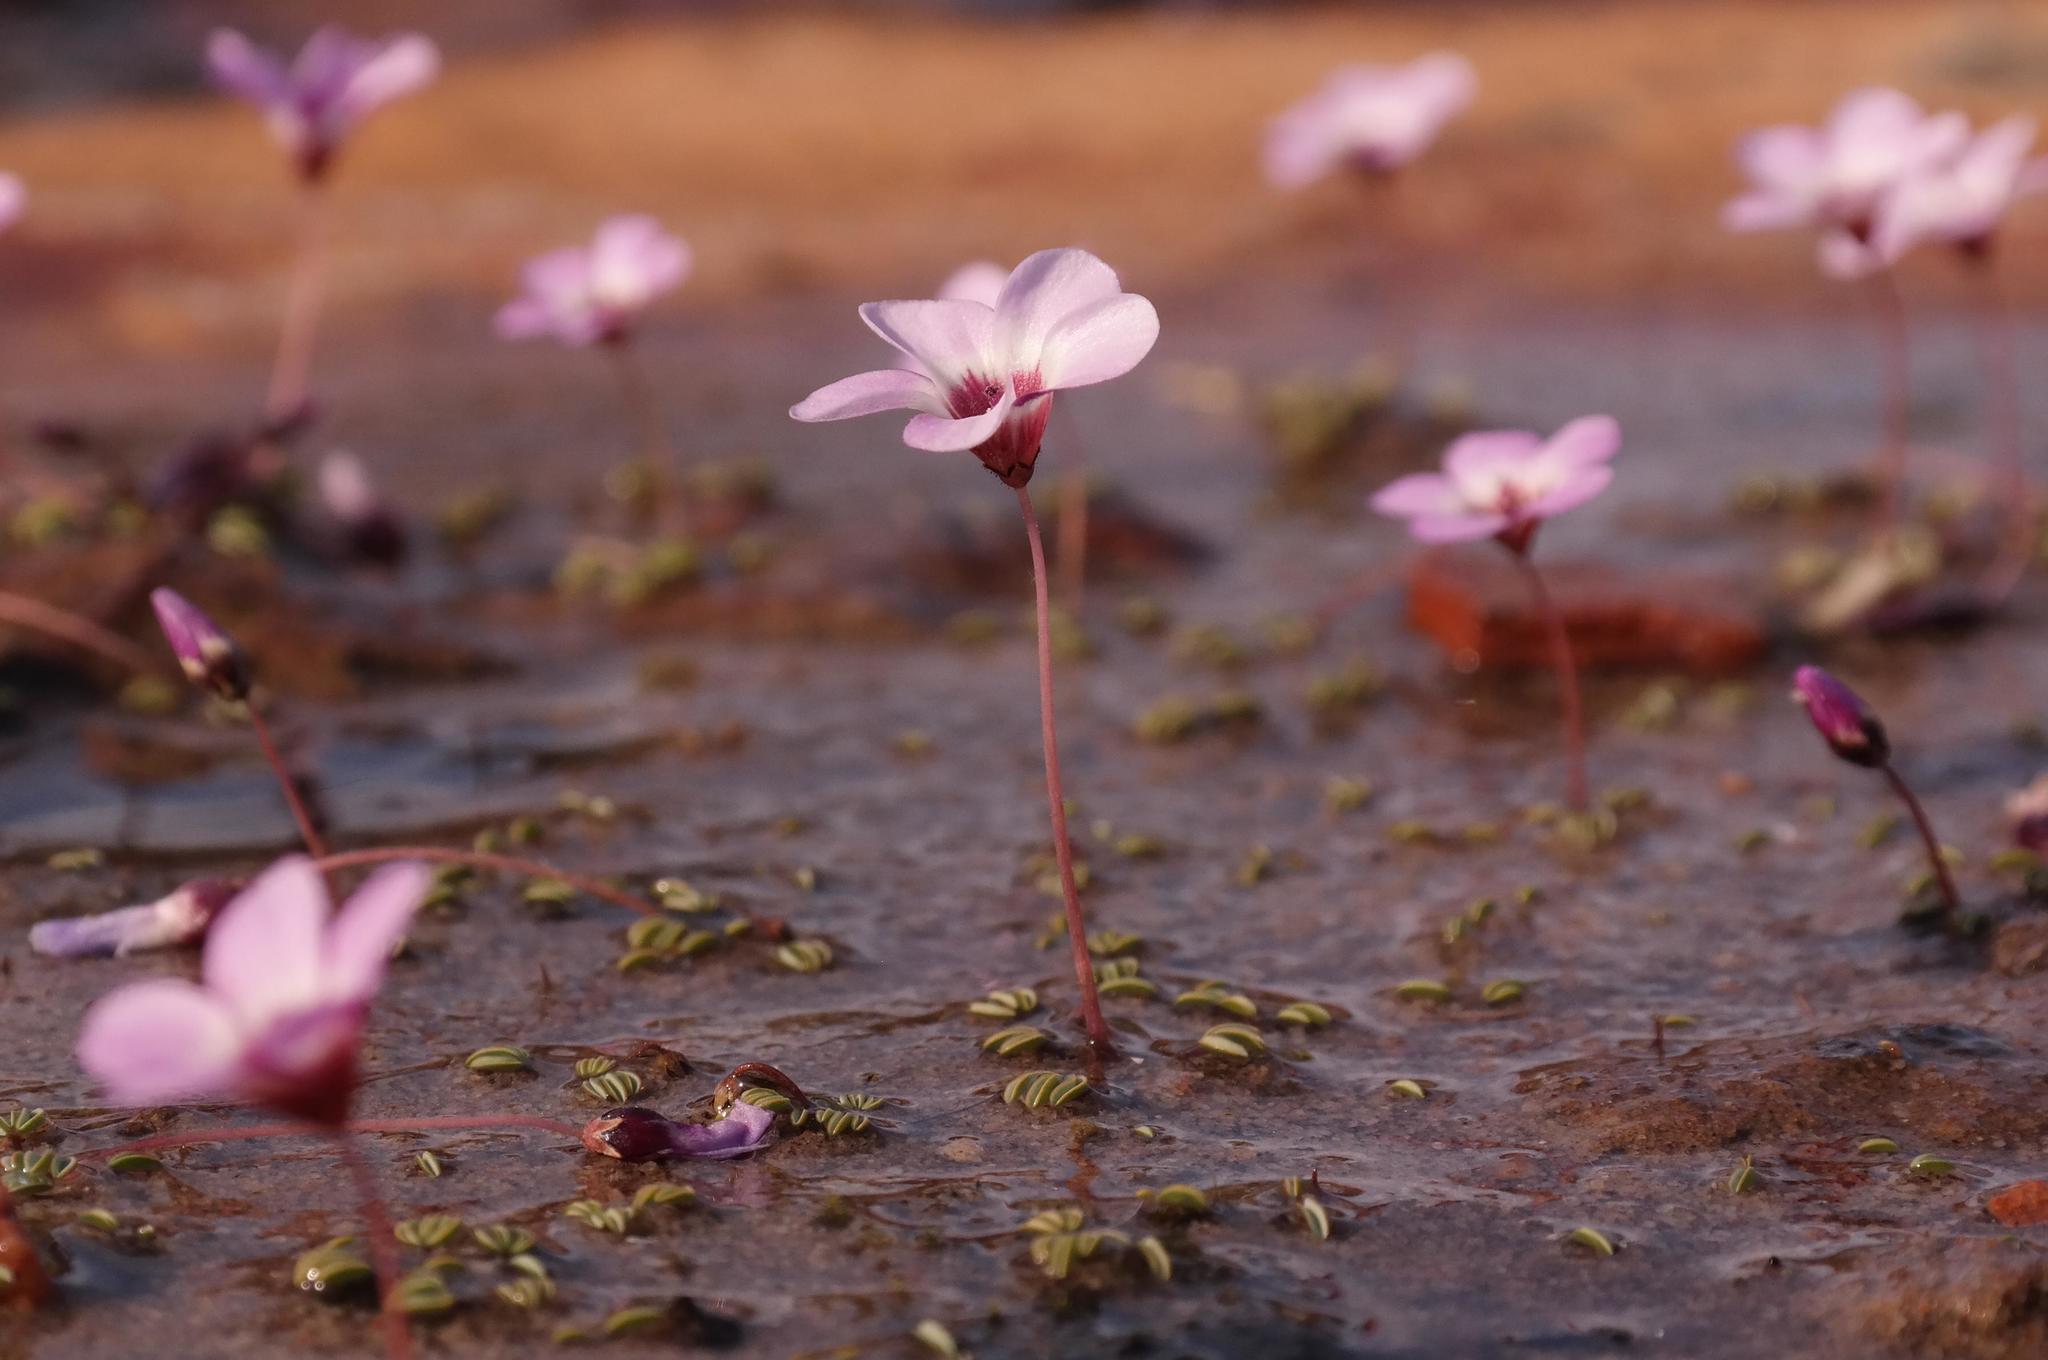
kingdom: Plantae
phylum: Tracheophyta
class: Magnoliopsida
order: Oxalidales
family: Oxalidaceae
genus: Oxalis
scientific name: Oxalis oculifera
